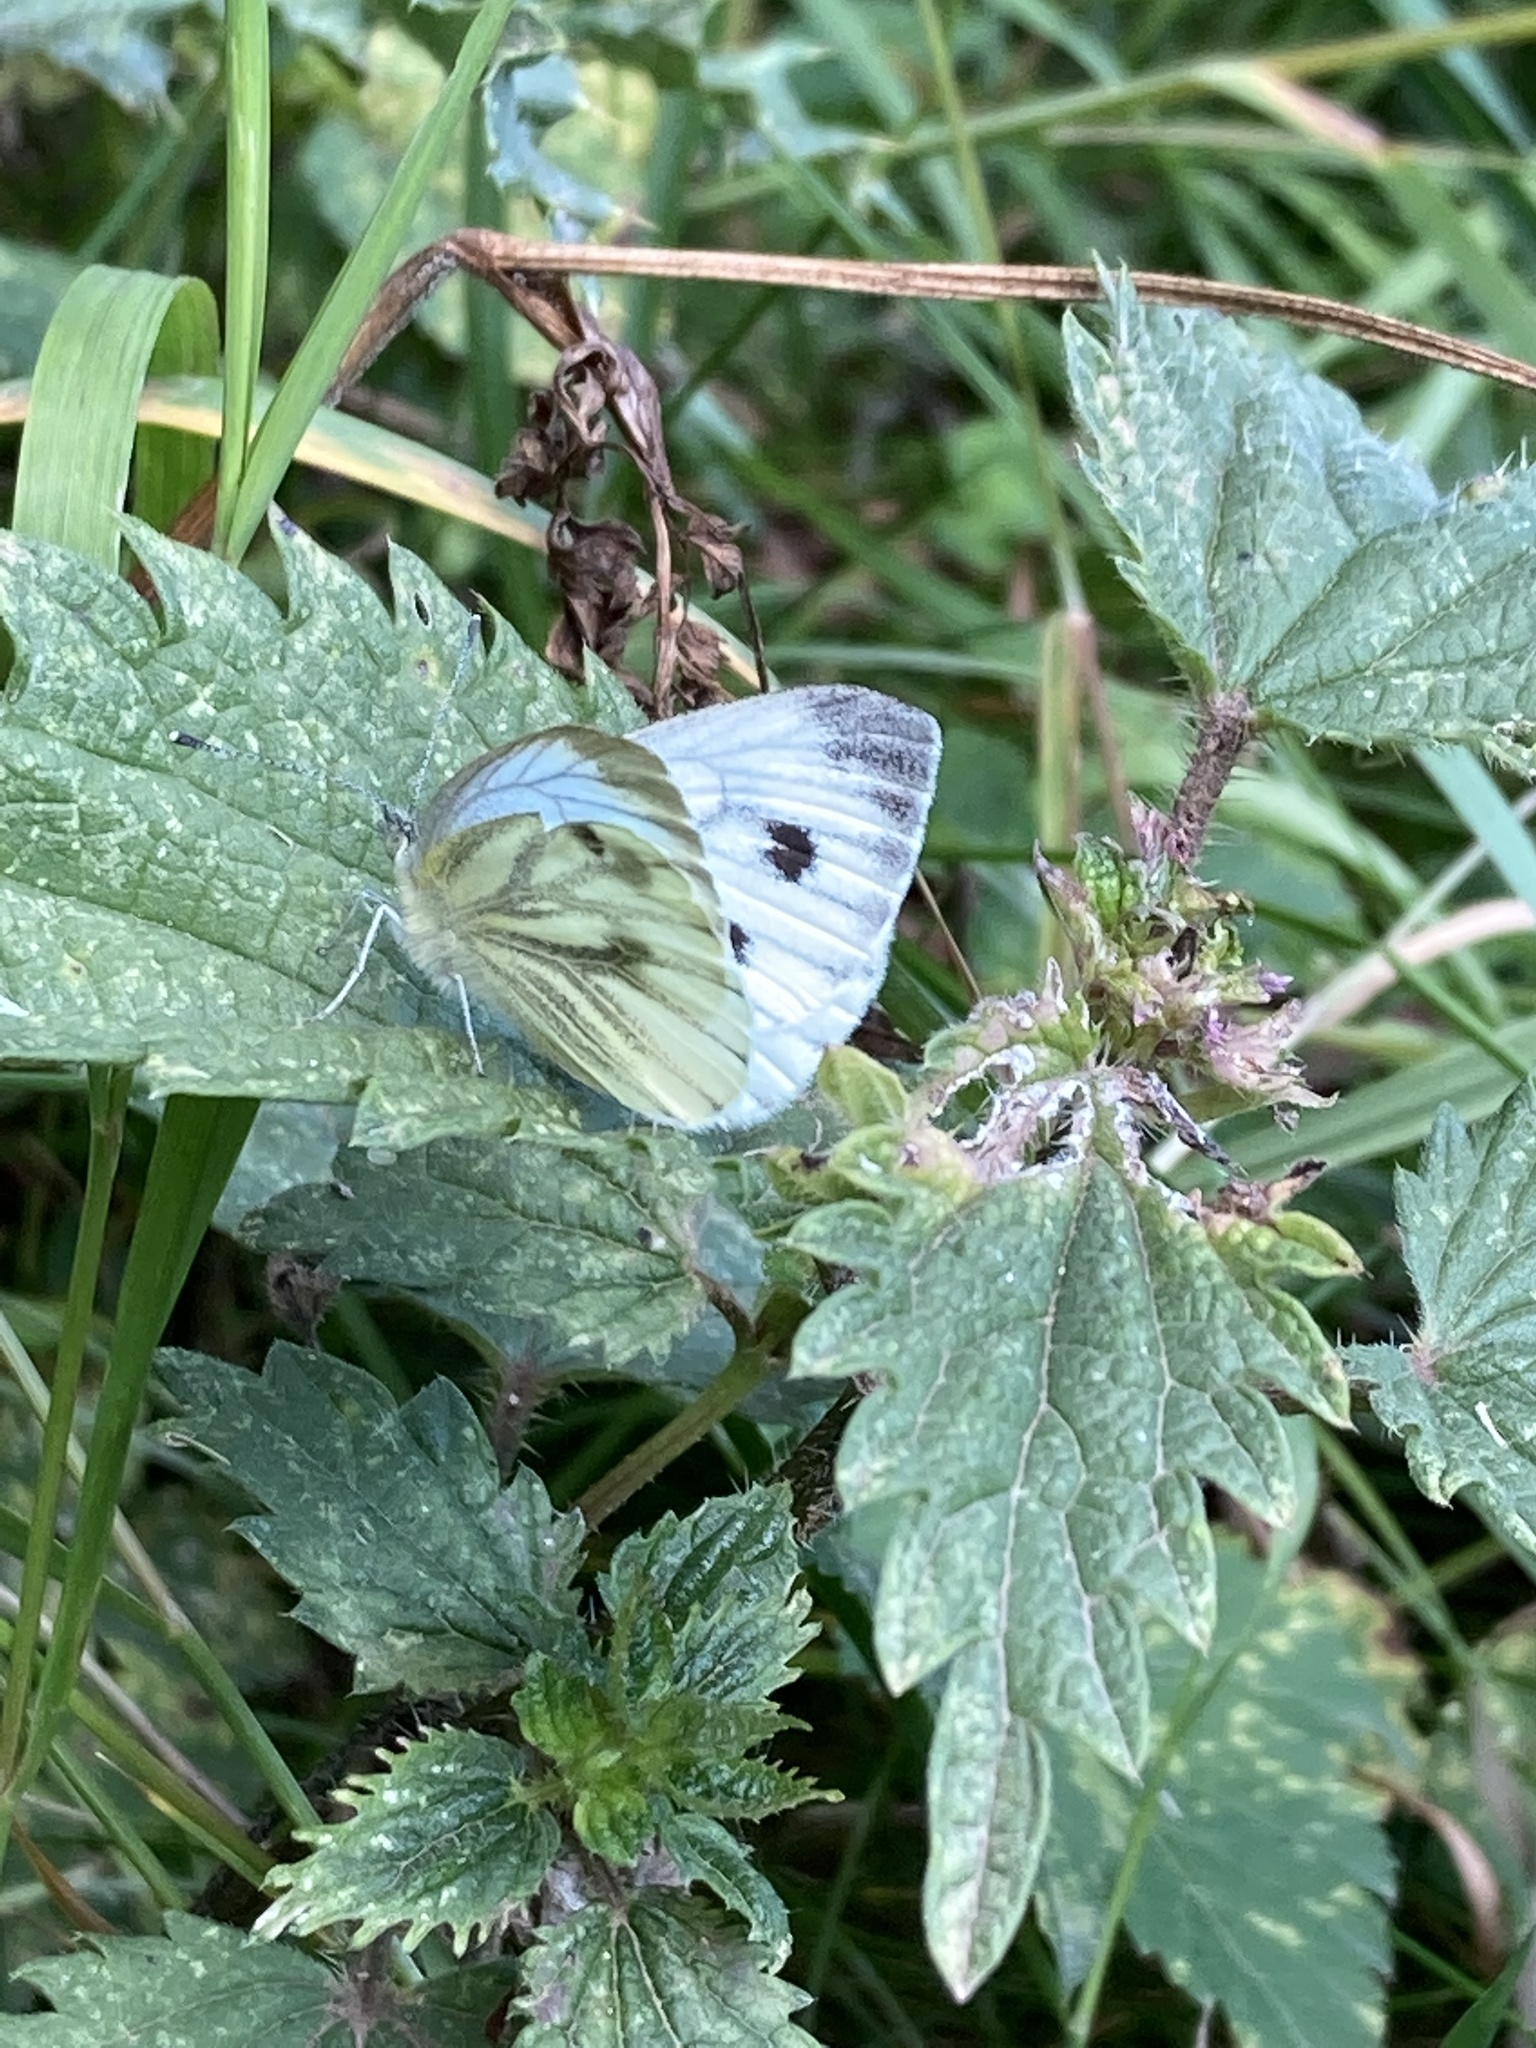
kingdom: Animalia
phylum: Arthropoda
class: Insecta
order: Lepidoptera
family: Pieridae
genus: Pieris
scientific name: Pieris napi
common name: Green-veined white
